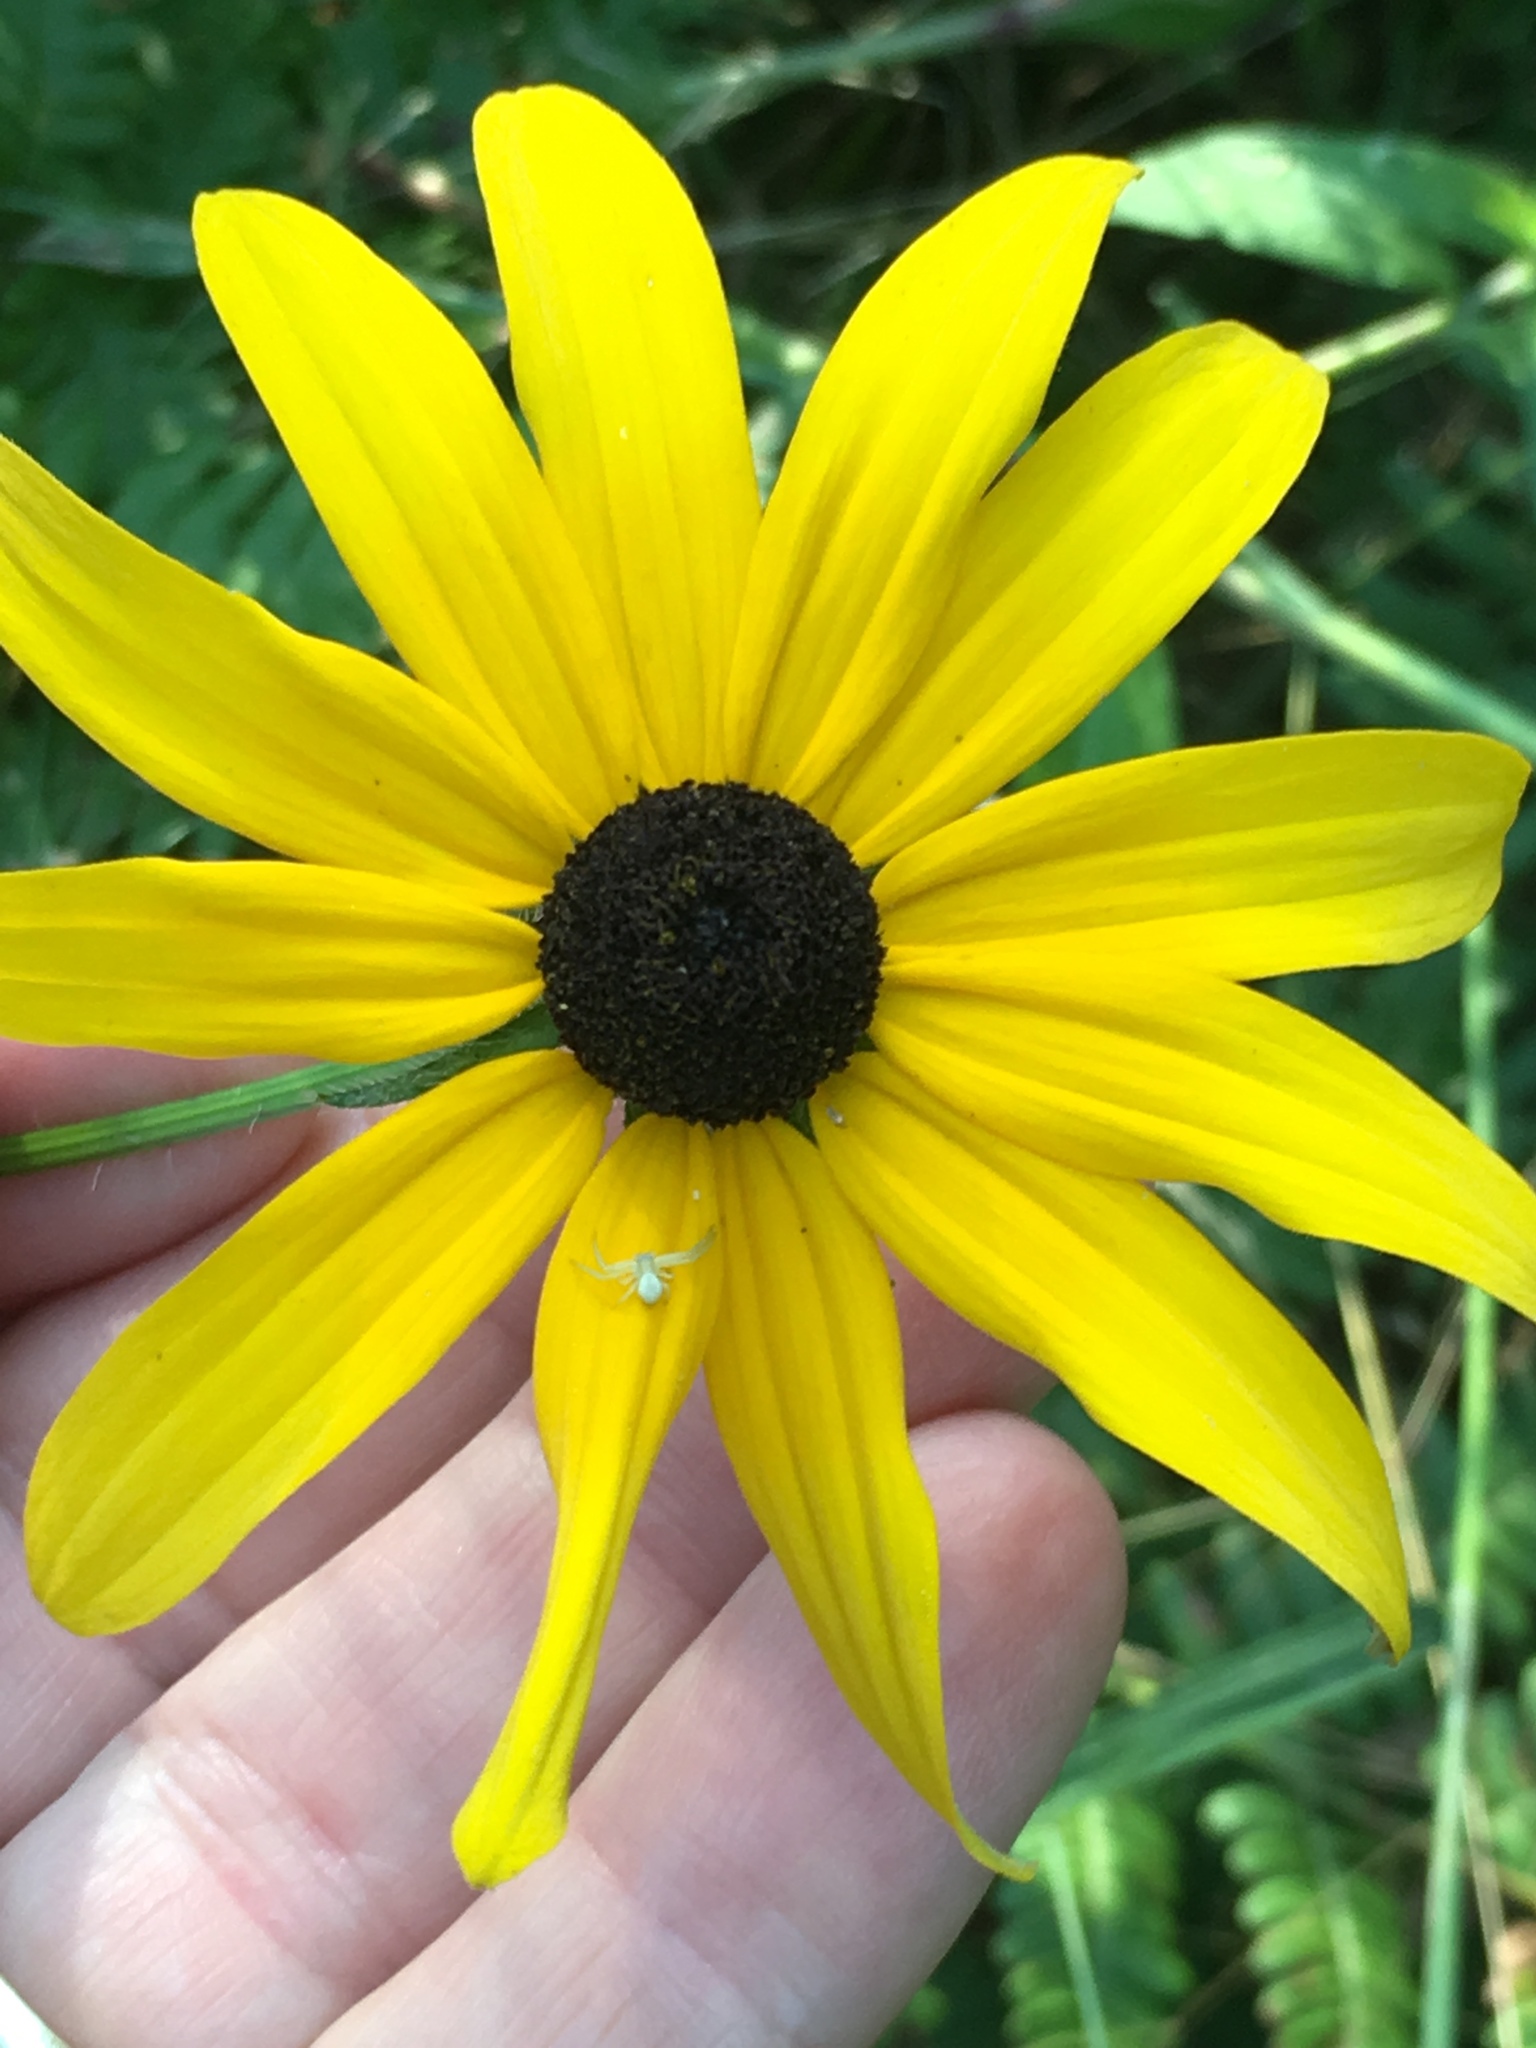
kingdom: Plantae
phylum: Tracheophyta
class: Magnoliopsida
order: Asterales
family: Asteraceae
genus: Rudbeckia
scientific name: Rudbeckia hirta
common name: Black-eyed-susan
